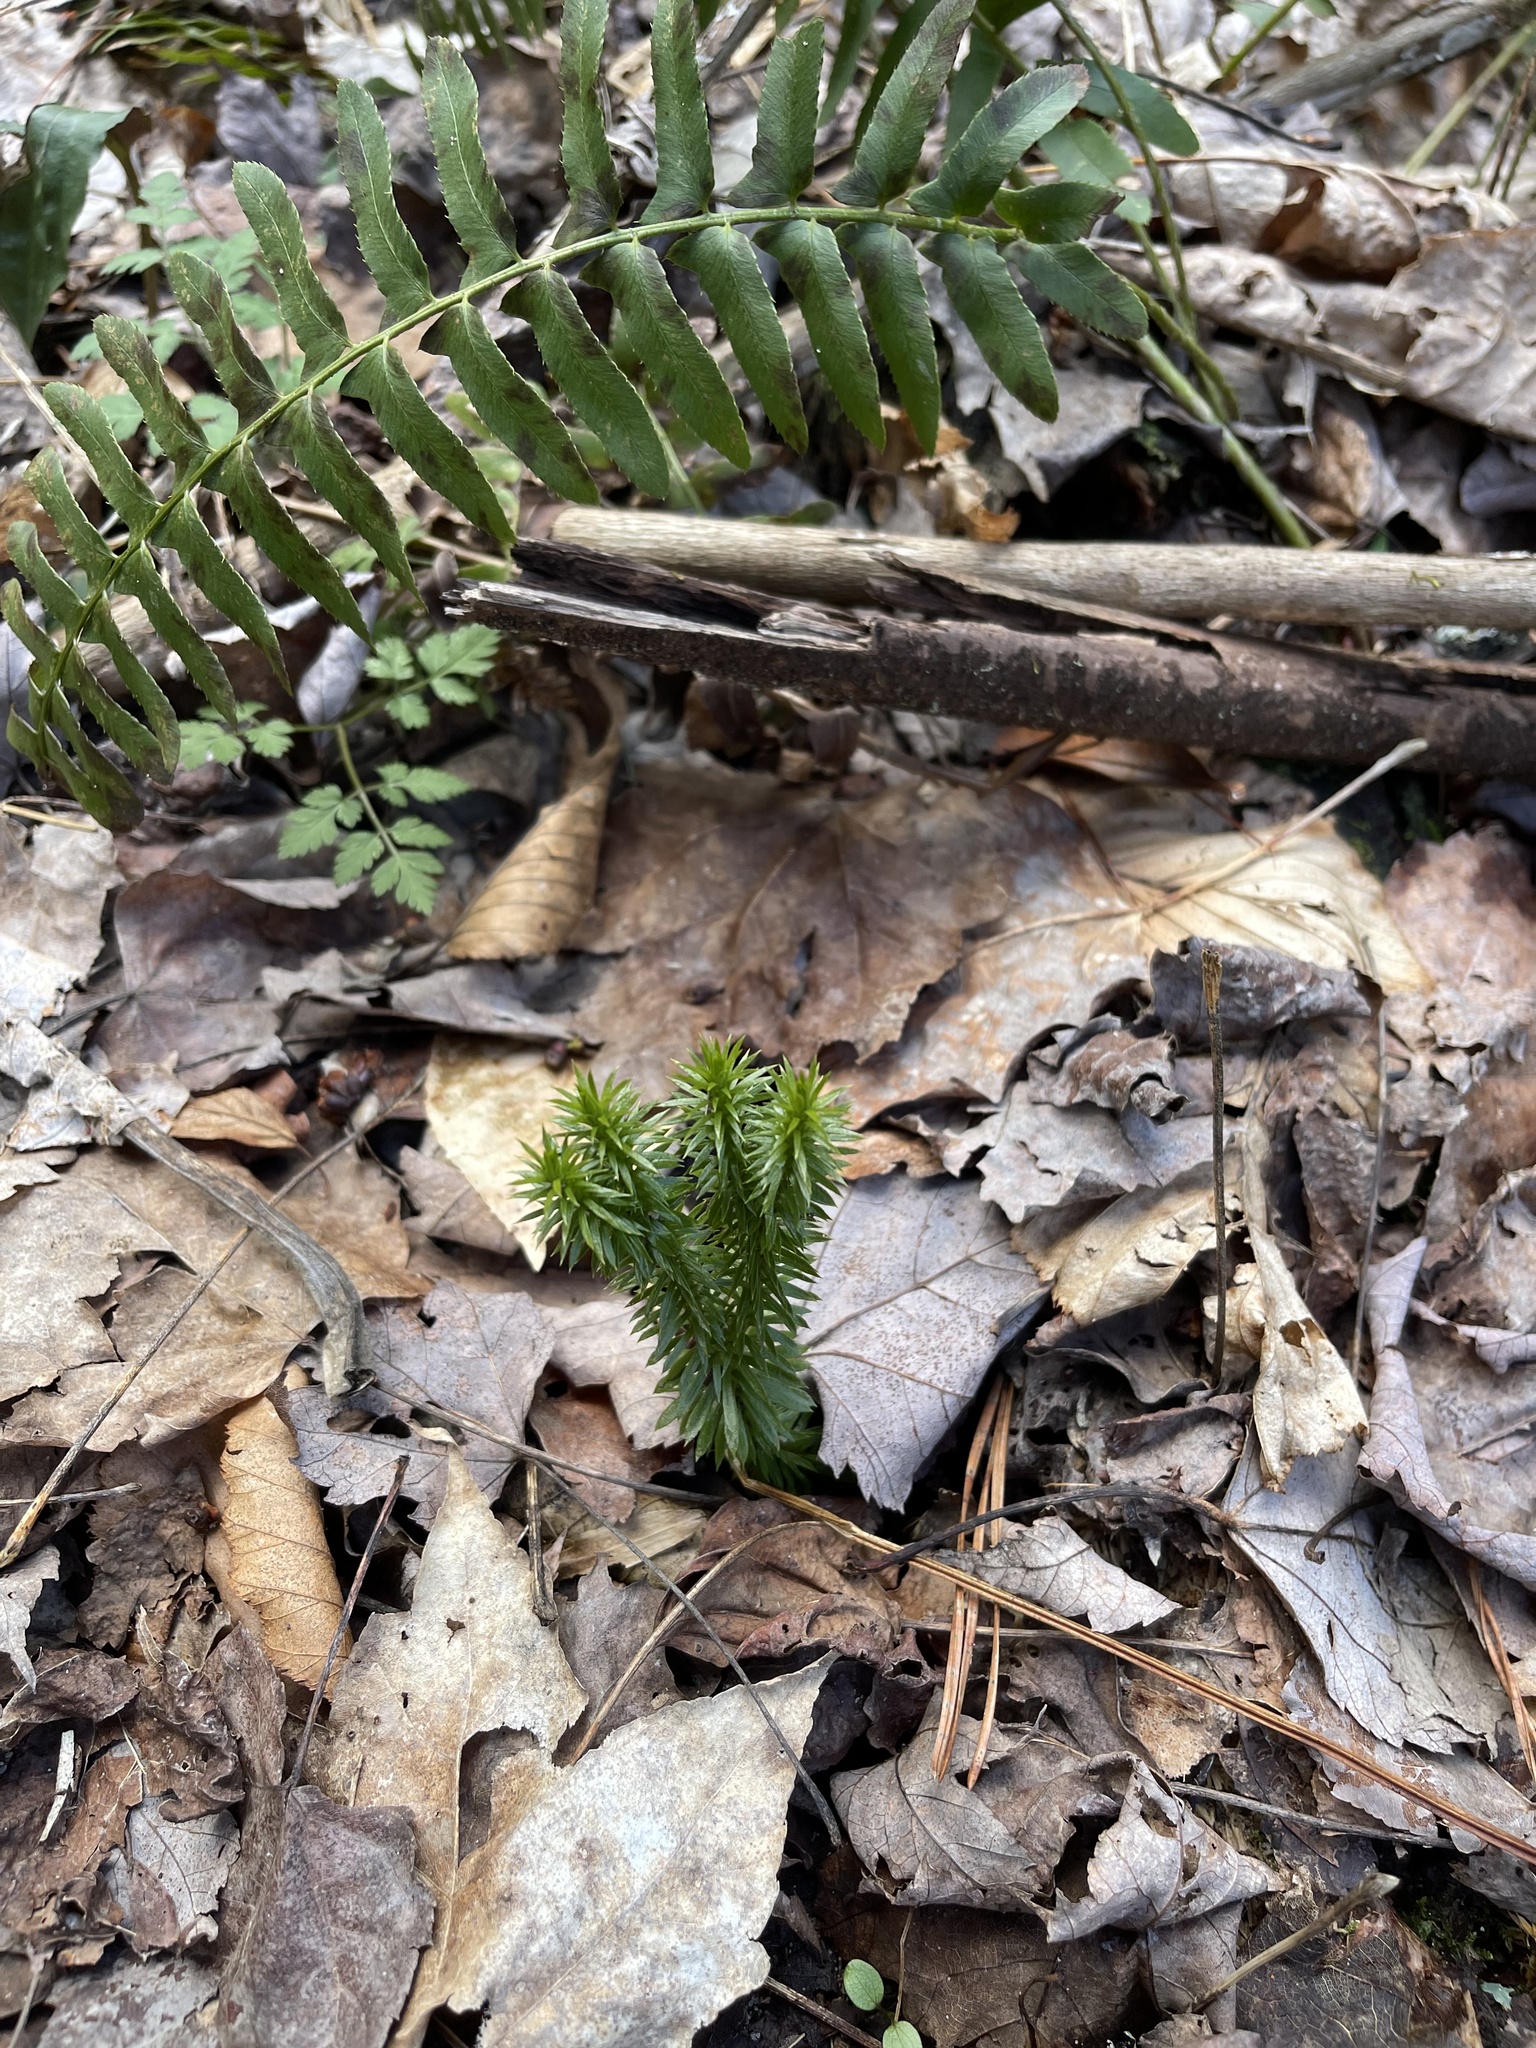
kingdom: Plantae
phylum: Tracheophyta
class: Lycopodiopsida
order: Lycopodiales
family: Lycopodiaceae
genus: Huperzia
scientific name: Huperzia lucidula
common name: Shining clubmoss
